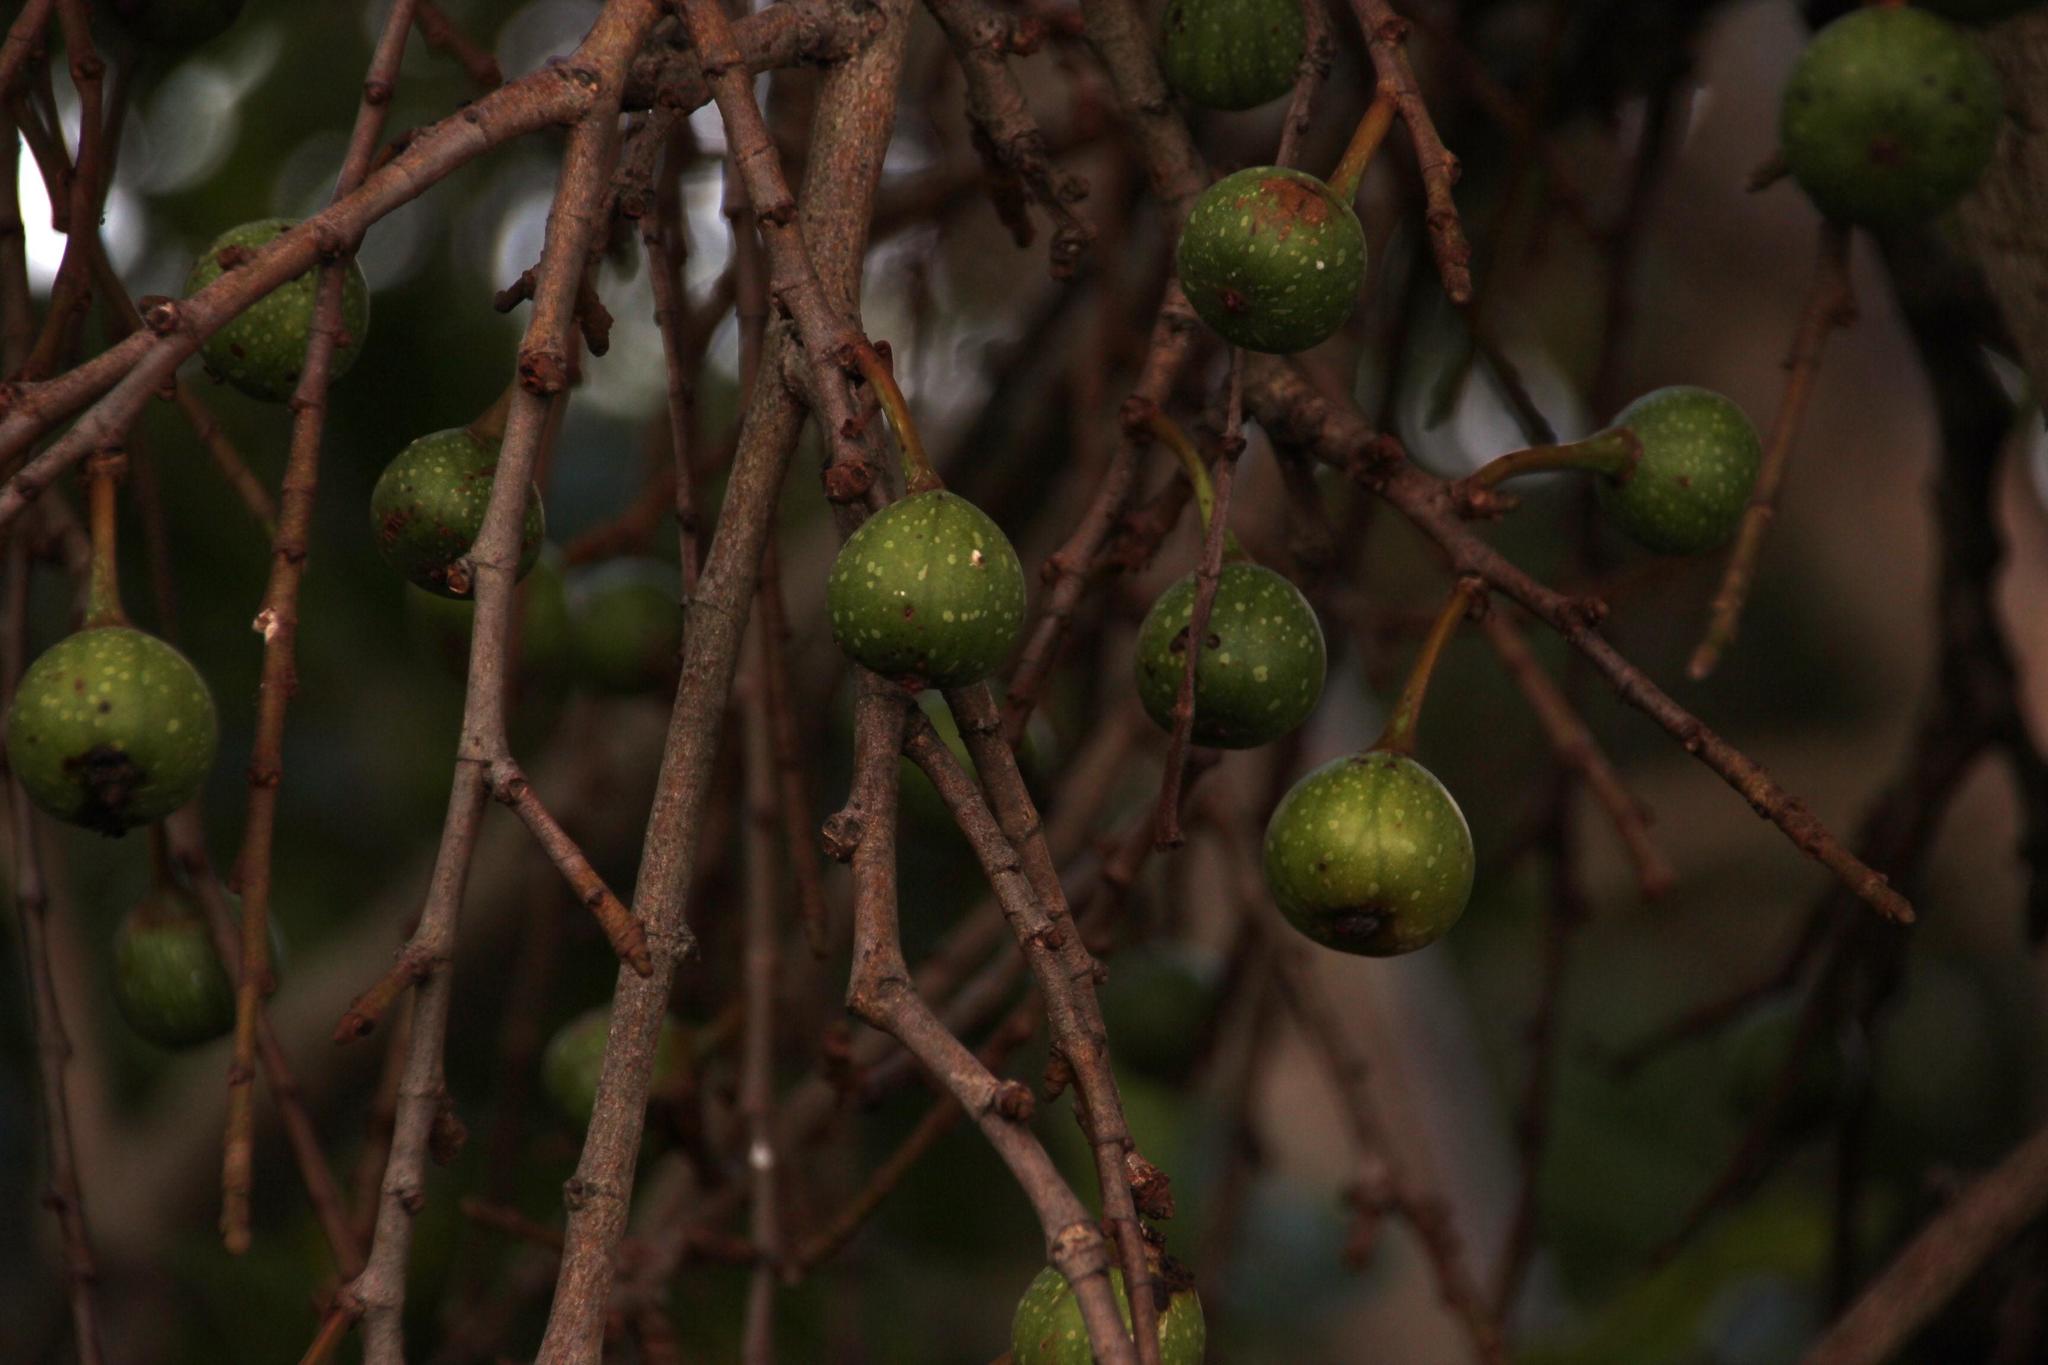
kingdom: Plantae
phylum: Tracheophyta
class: Magnoliopsida
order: Rosales
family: Moraceae
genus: Ficus
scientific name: Ficus sur
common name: Cape fig
